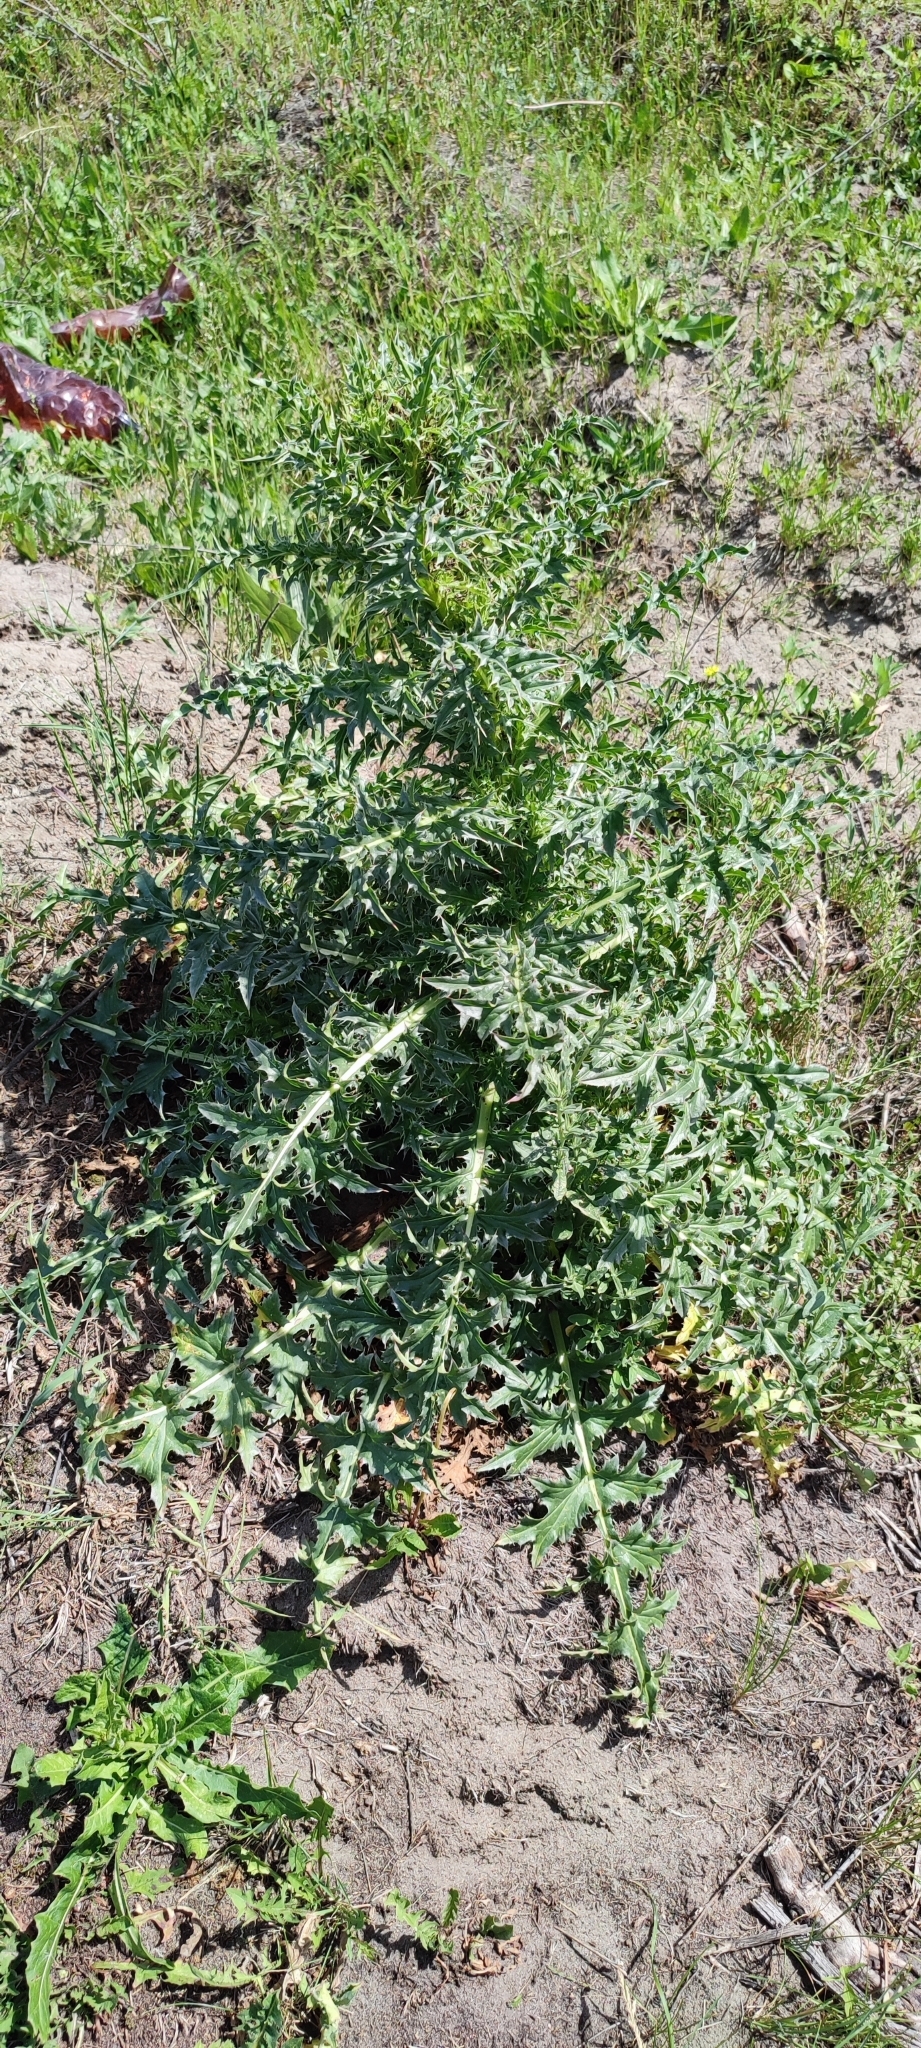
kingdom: Plantae
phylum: Tracheophyta
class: Magnoliopsida
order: Asterales
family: Asteraceae
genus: Carduus
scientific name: Carduus acanthoides
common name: Plumeless thistle
